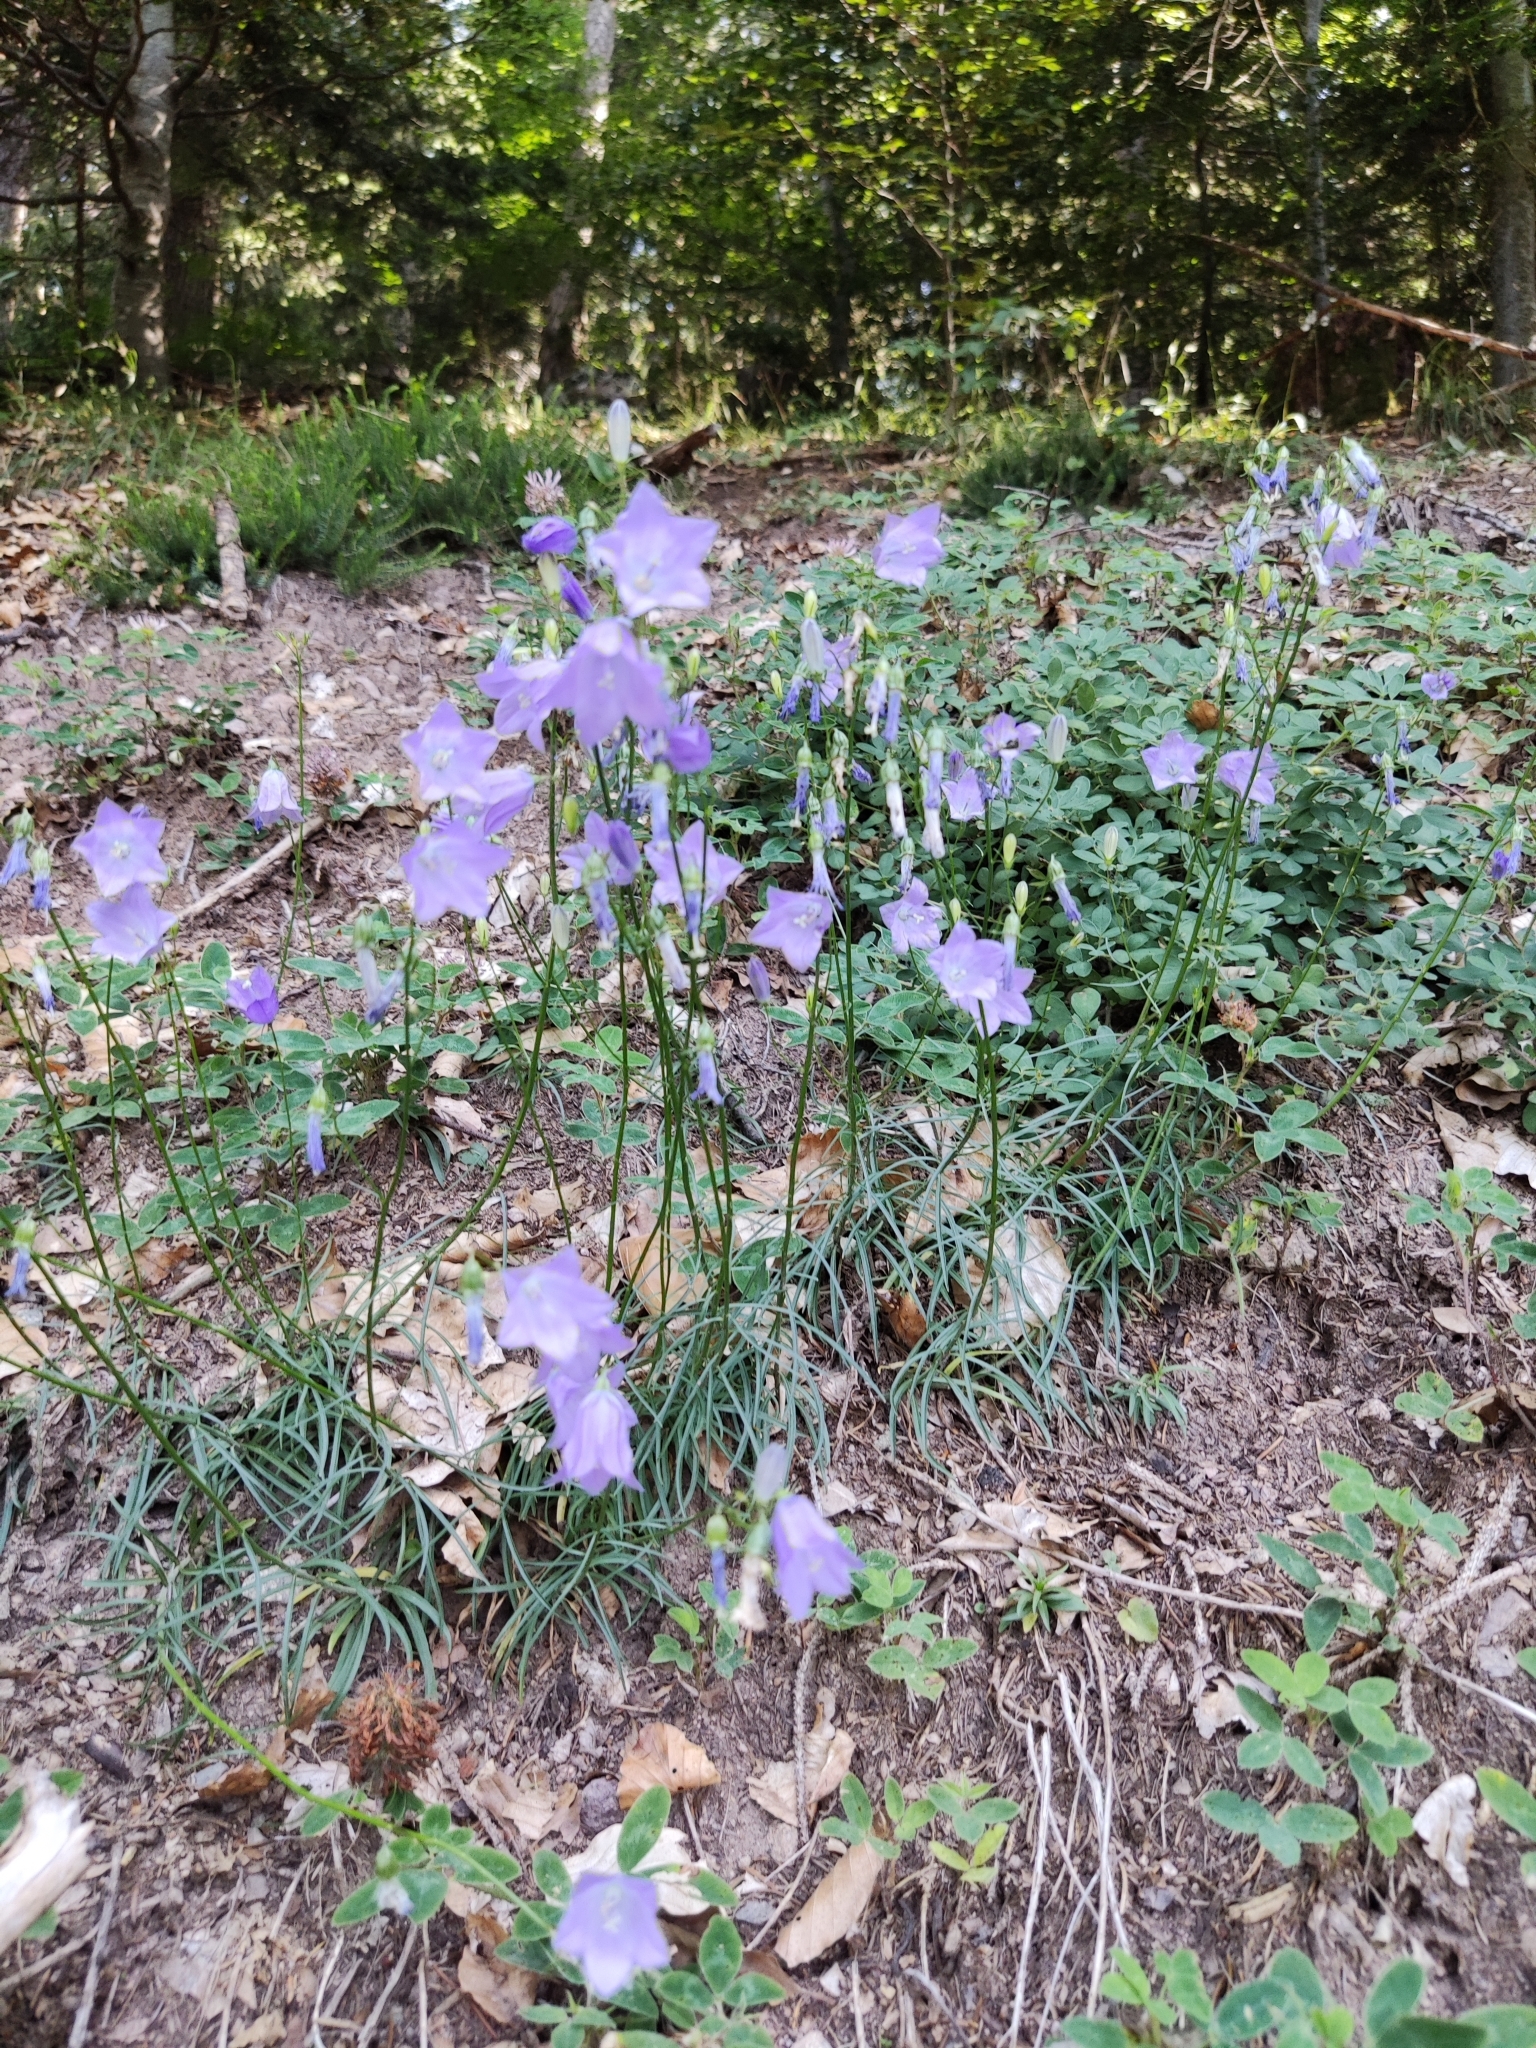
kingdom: Plantae
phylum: Tracheophyta
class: Magnoliopsida
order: Asterales
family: Campanulaceae
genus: Campanula
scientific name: Campanula persicifolia
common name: Peach-leaved bellflower
